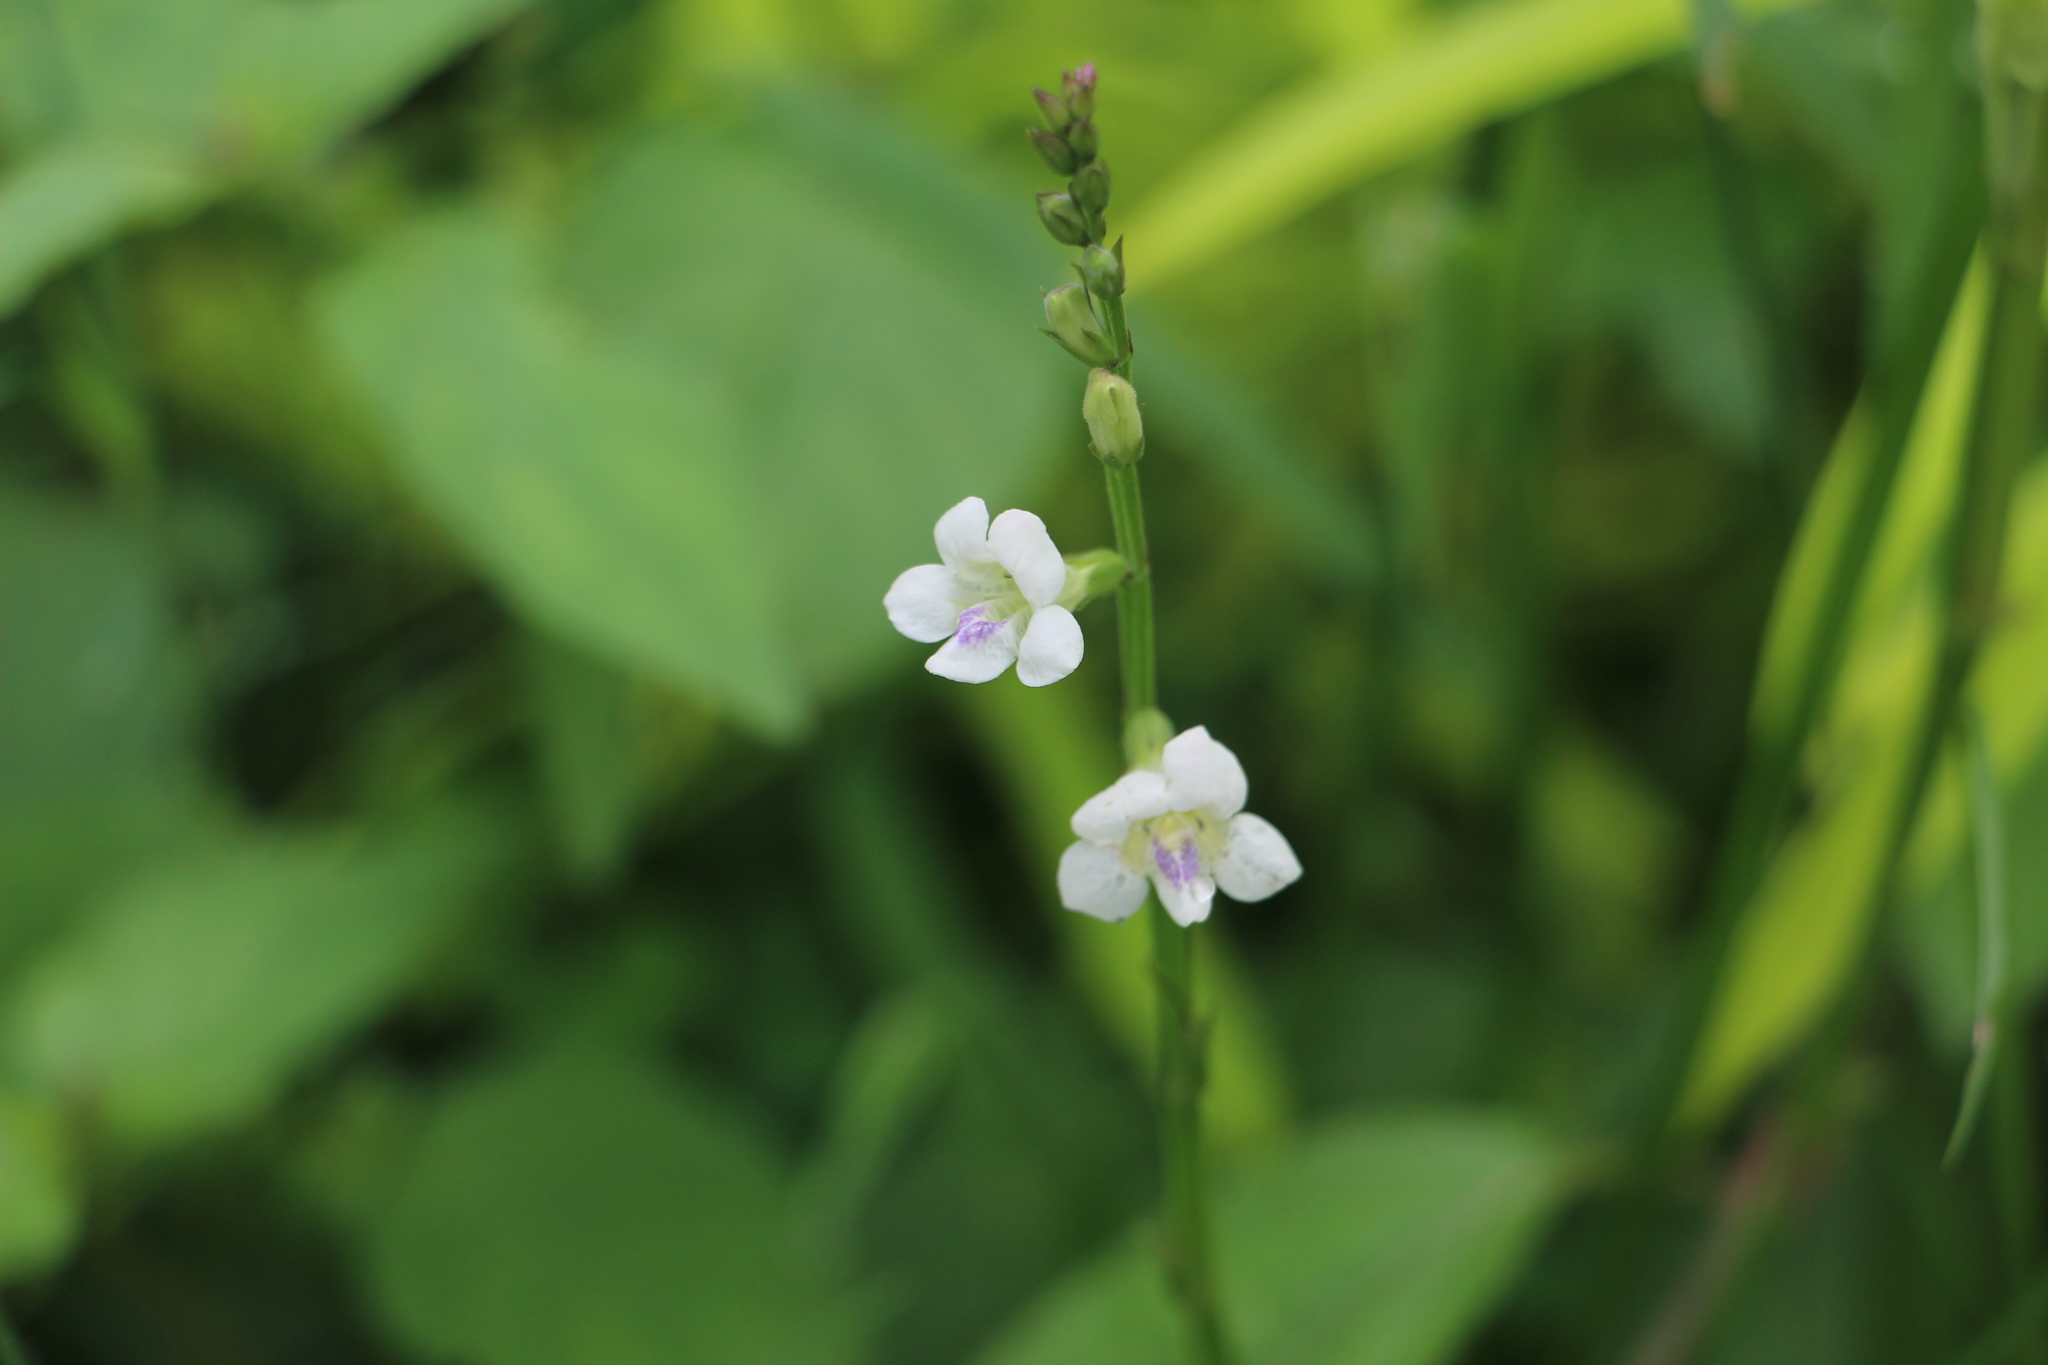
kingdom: Plantae
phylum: Tracheophyta
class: Magnoliopsida
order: Lamiales
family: Acanthaceae
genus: Asystasia
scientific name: Asystasia intrusa
